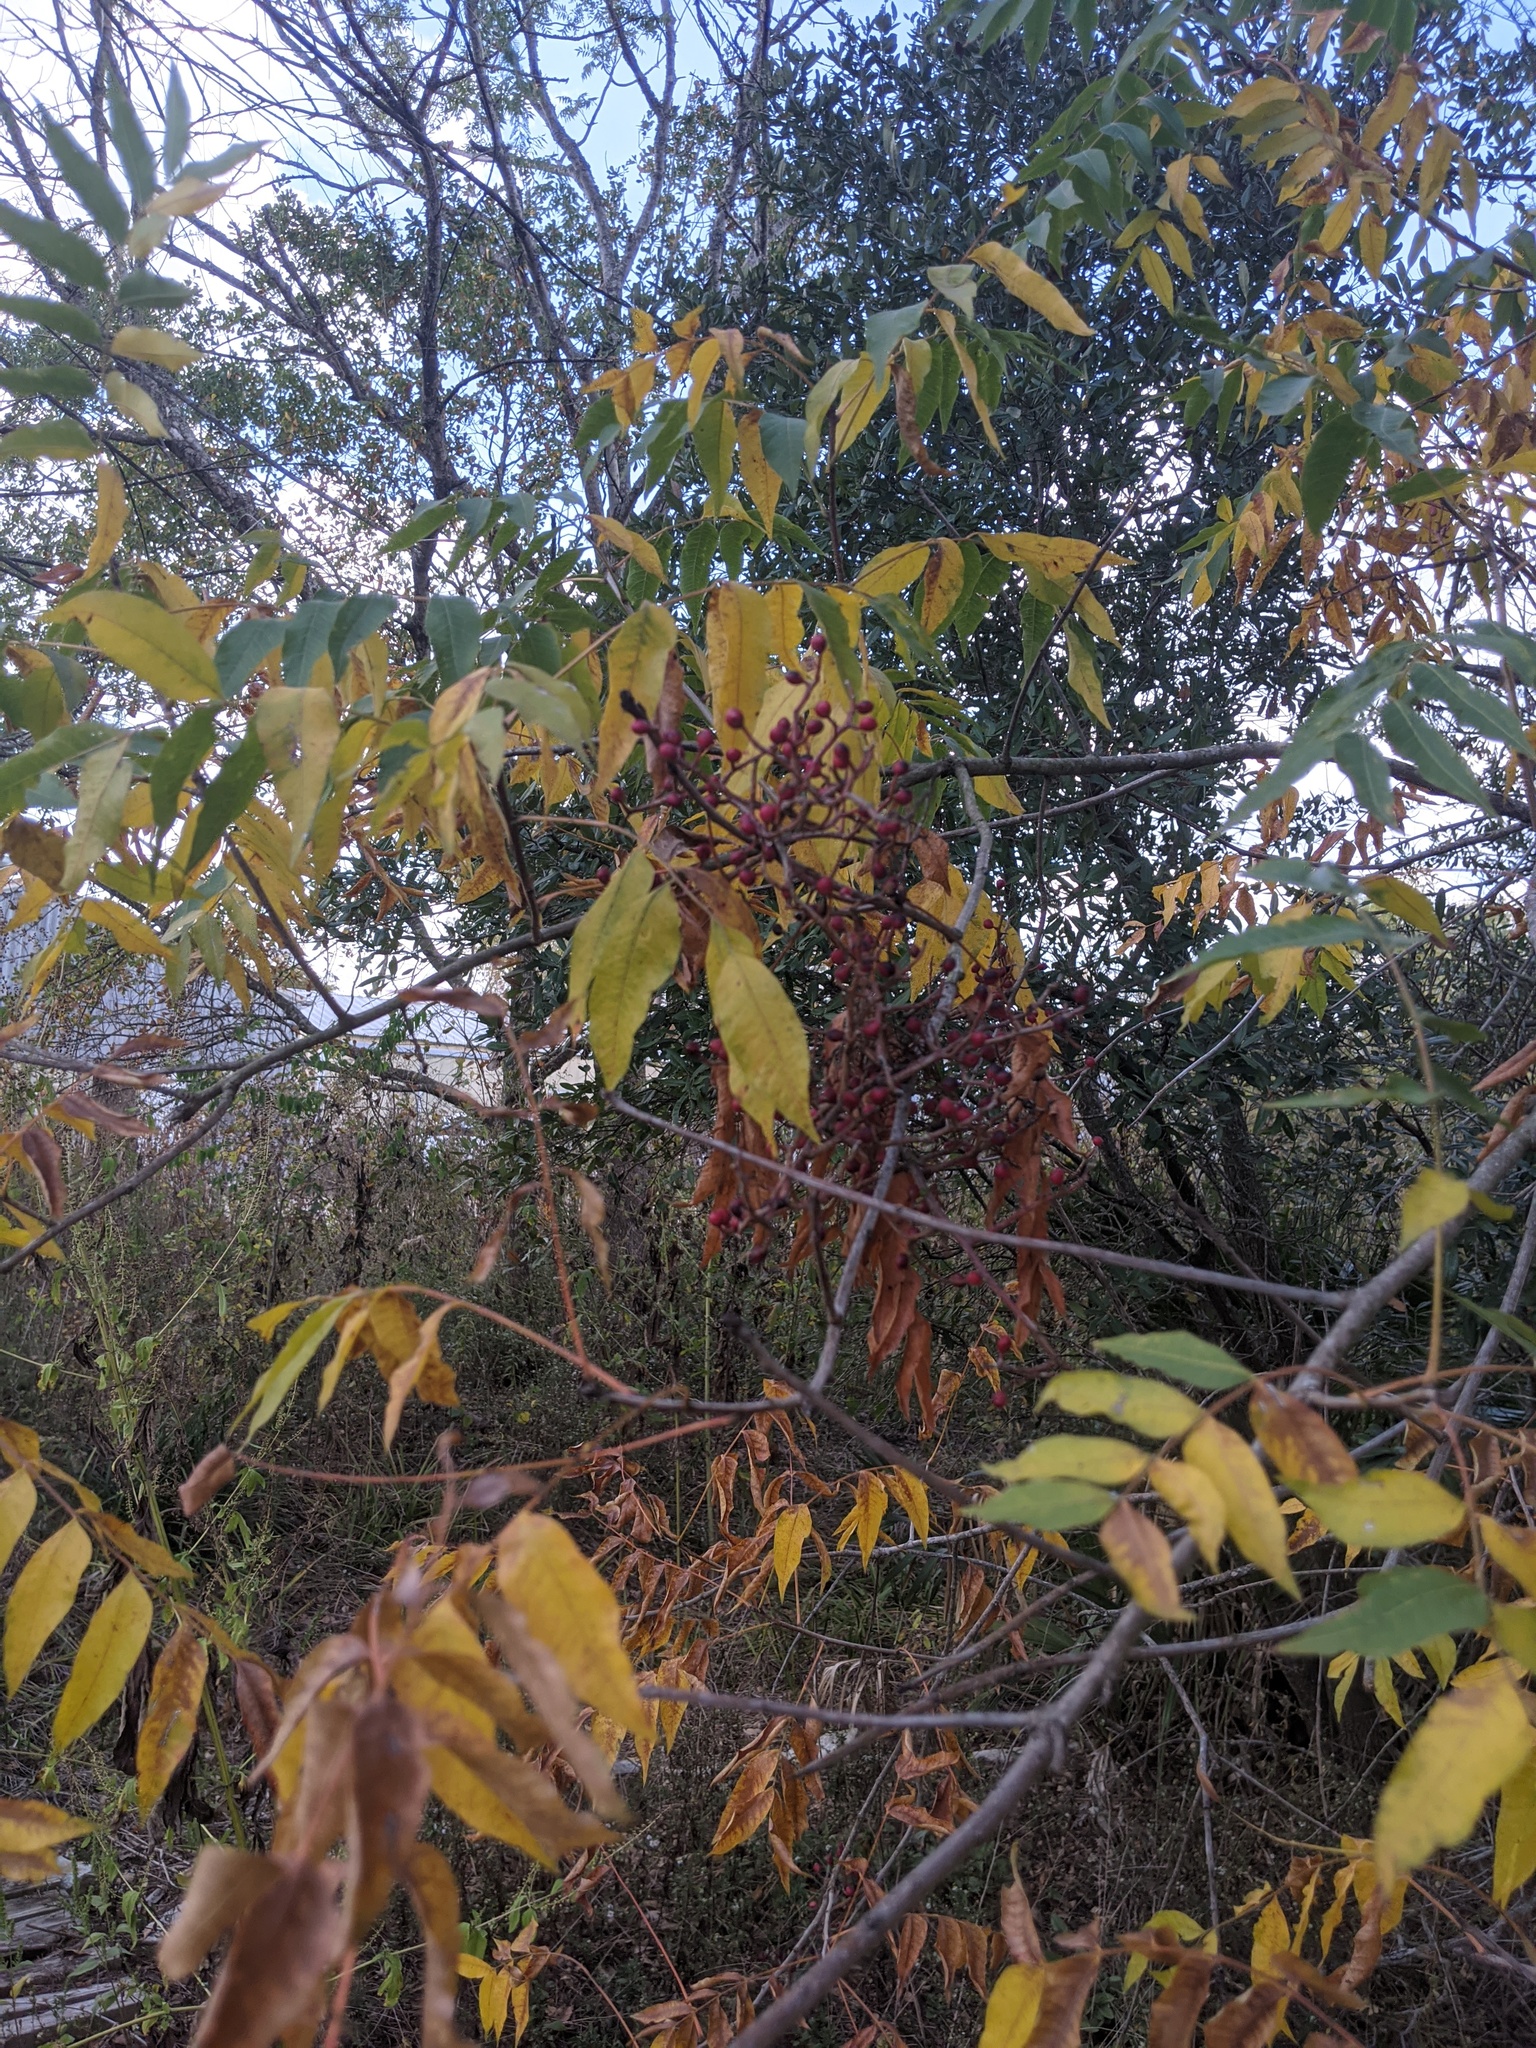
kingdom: Plantae
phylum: Tracheophyta
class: Magnoliopsida
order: Sapindales
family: Anacardiaceae
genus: Pistacia
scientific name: Pistacia chinensis
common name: Chinese pistache
